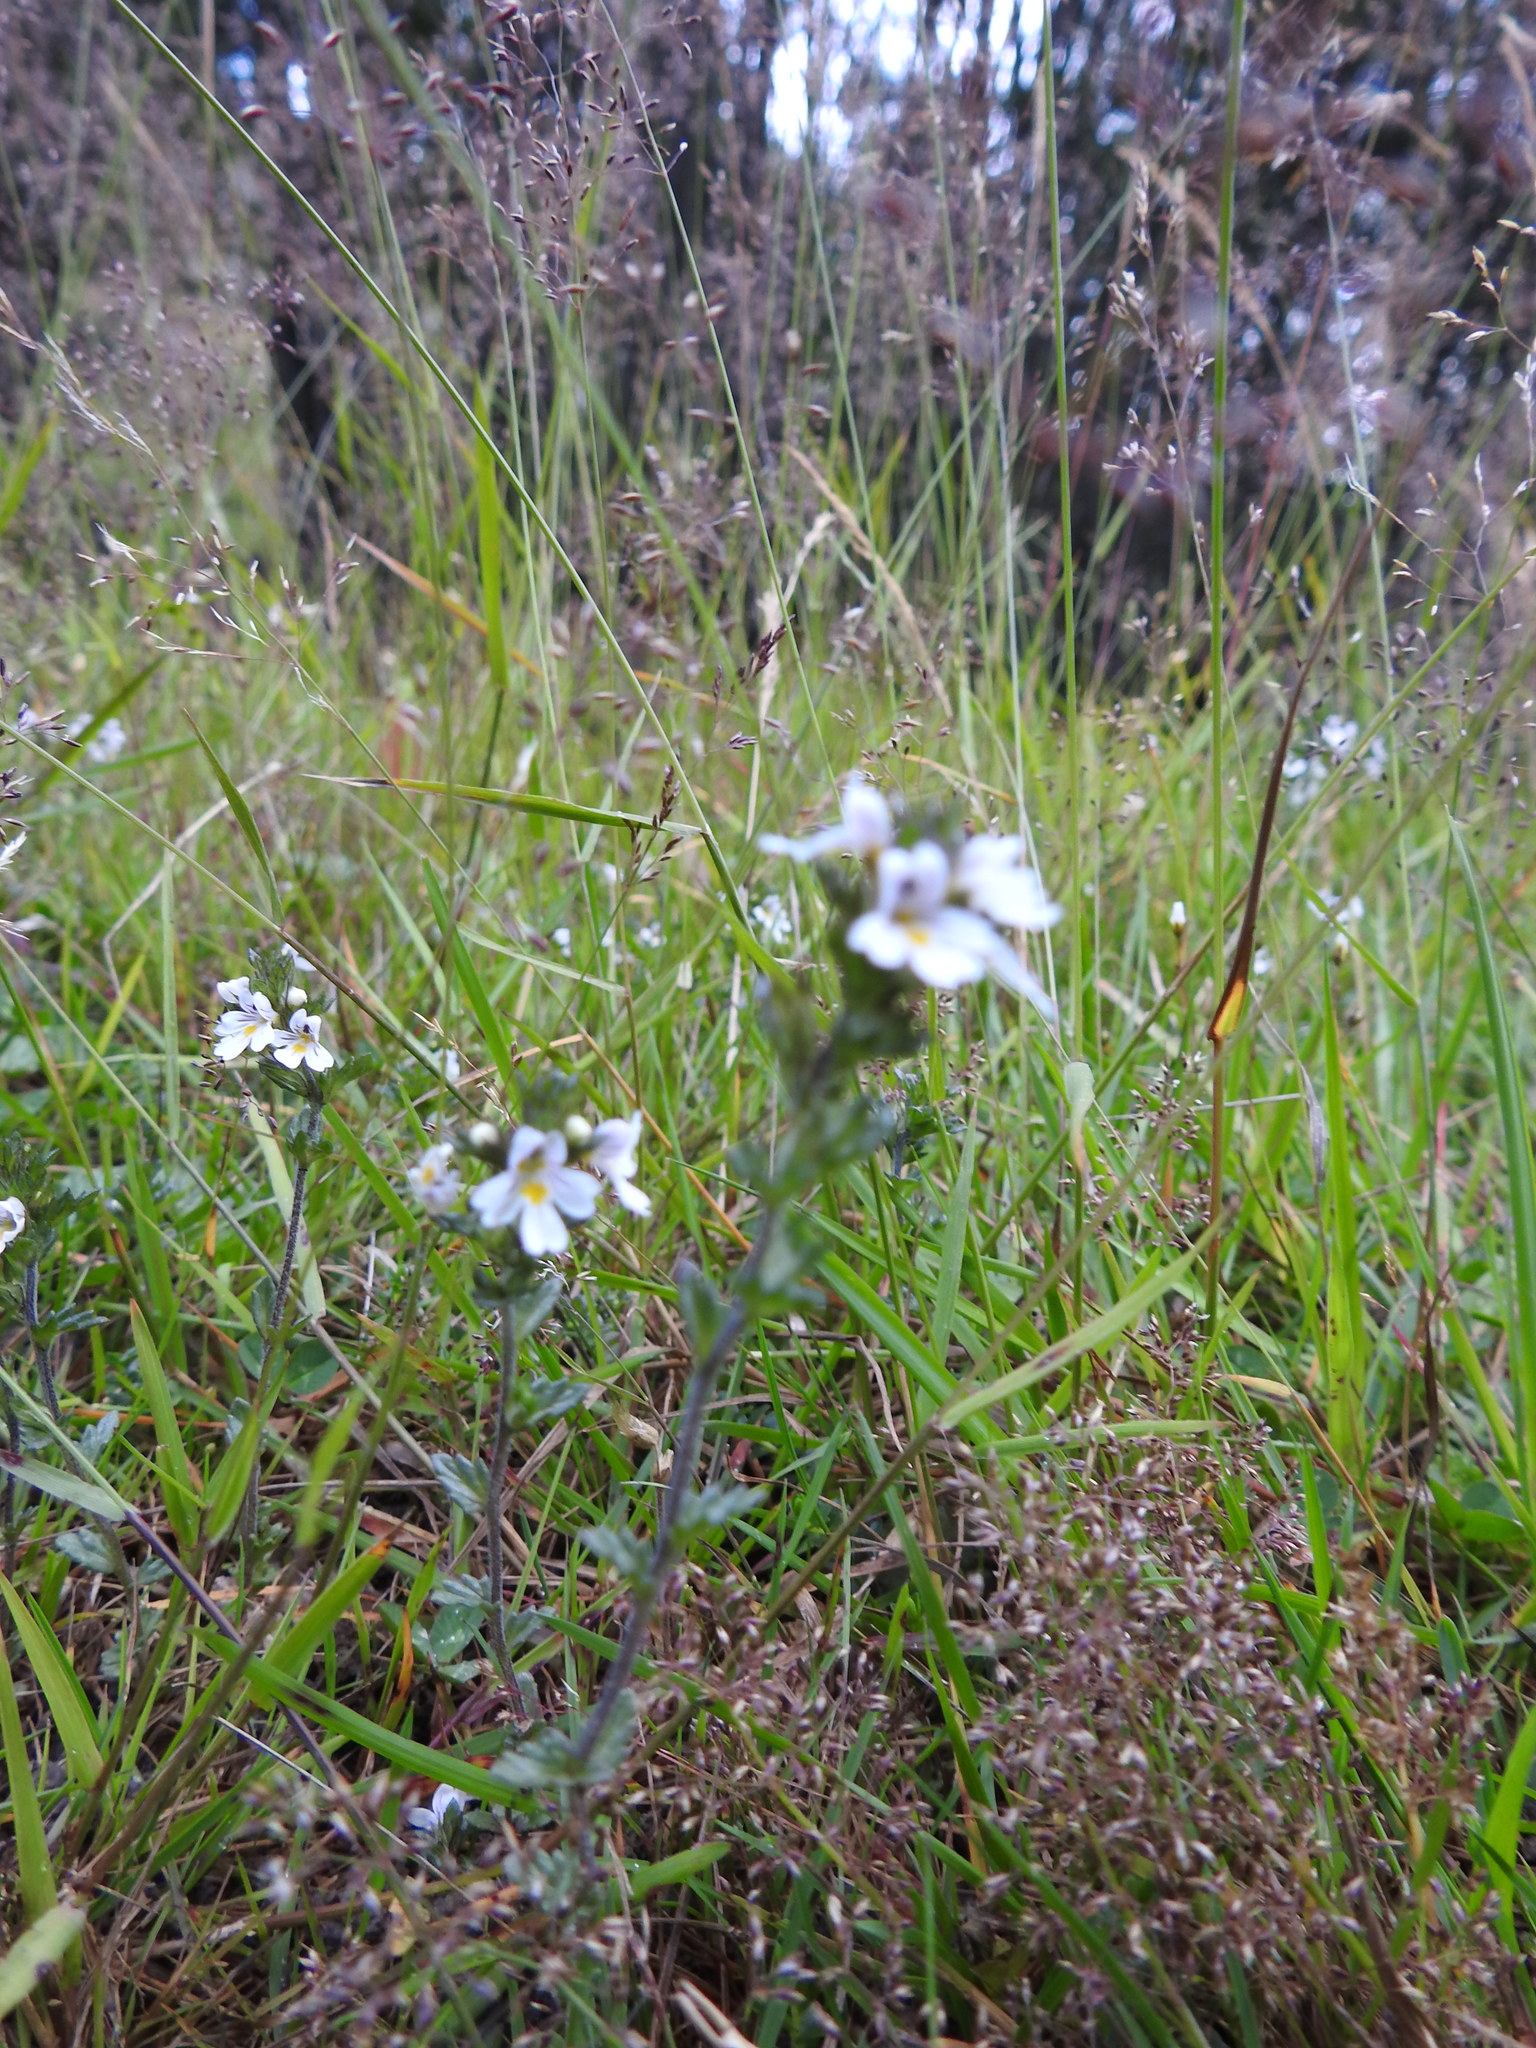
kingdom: Plantae
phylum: Tracheophyta
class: Magnoliopsida
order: Lamiales
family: Orobanchaceae
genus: Euphrasia
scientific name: Euphrasia officinalis
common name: Eyebright
